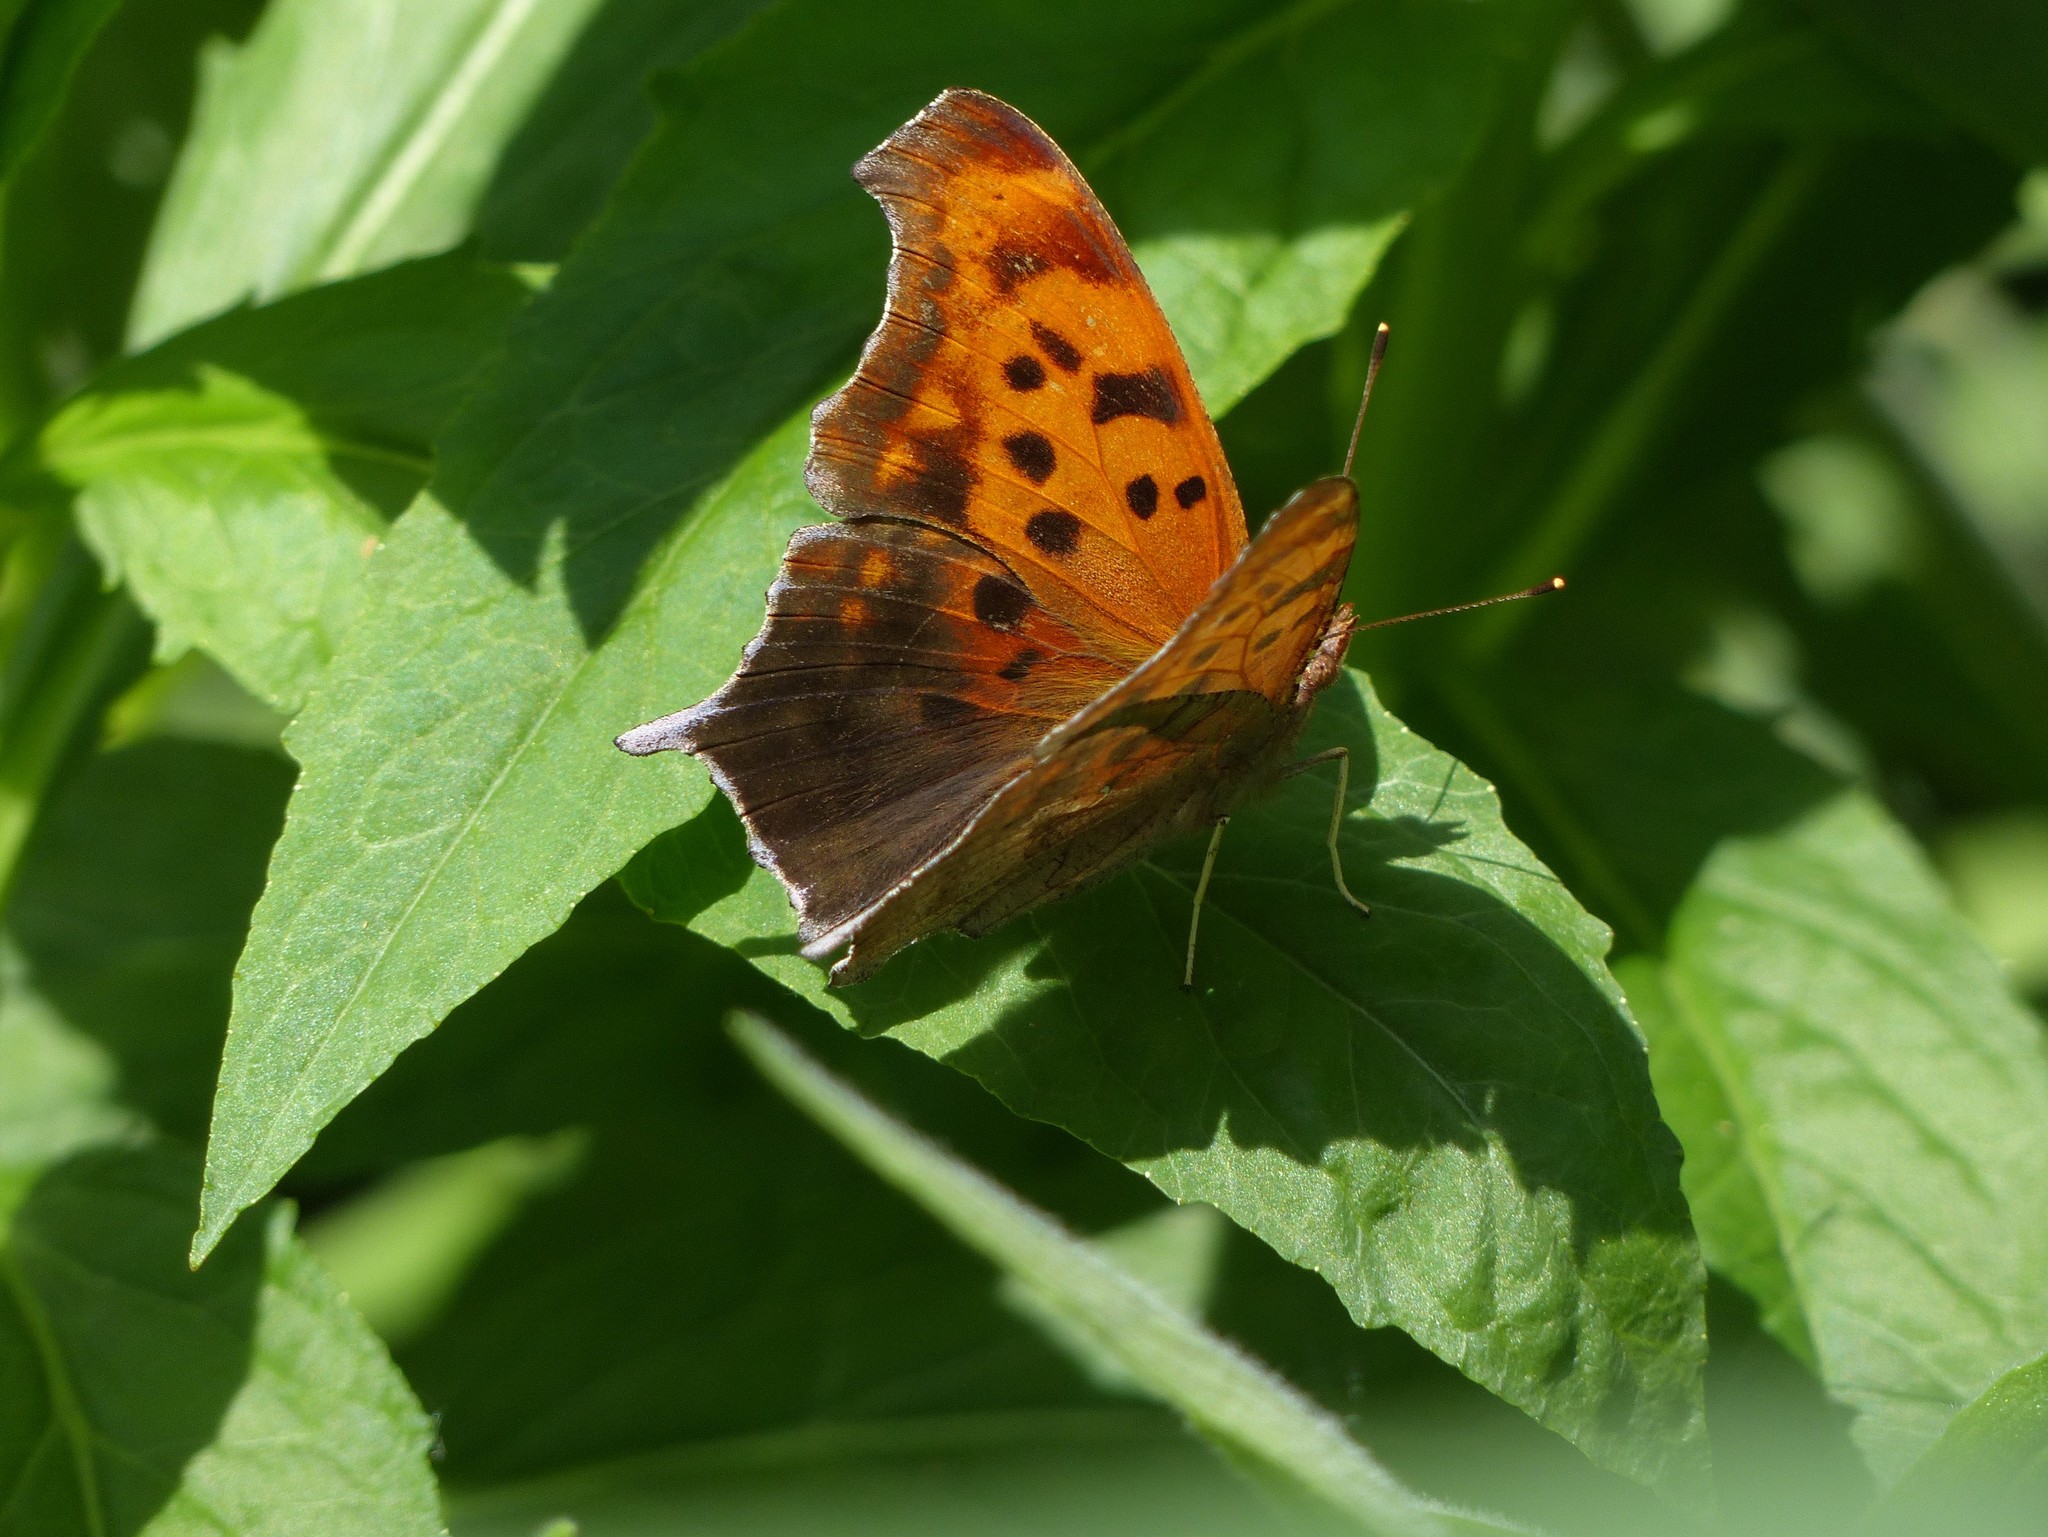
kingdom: Animalia
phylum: Arthropoda
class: Insecta
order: Lepidoptera
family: Nymphalidae
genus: Polygonia
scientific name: Polygonia interrogationis
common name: Question mark
